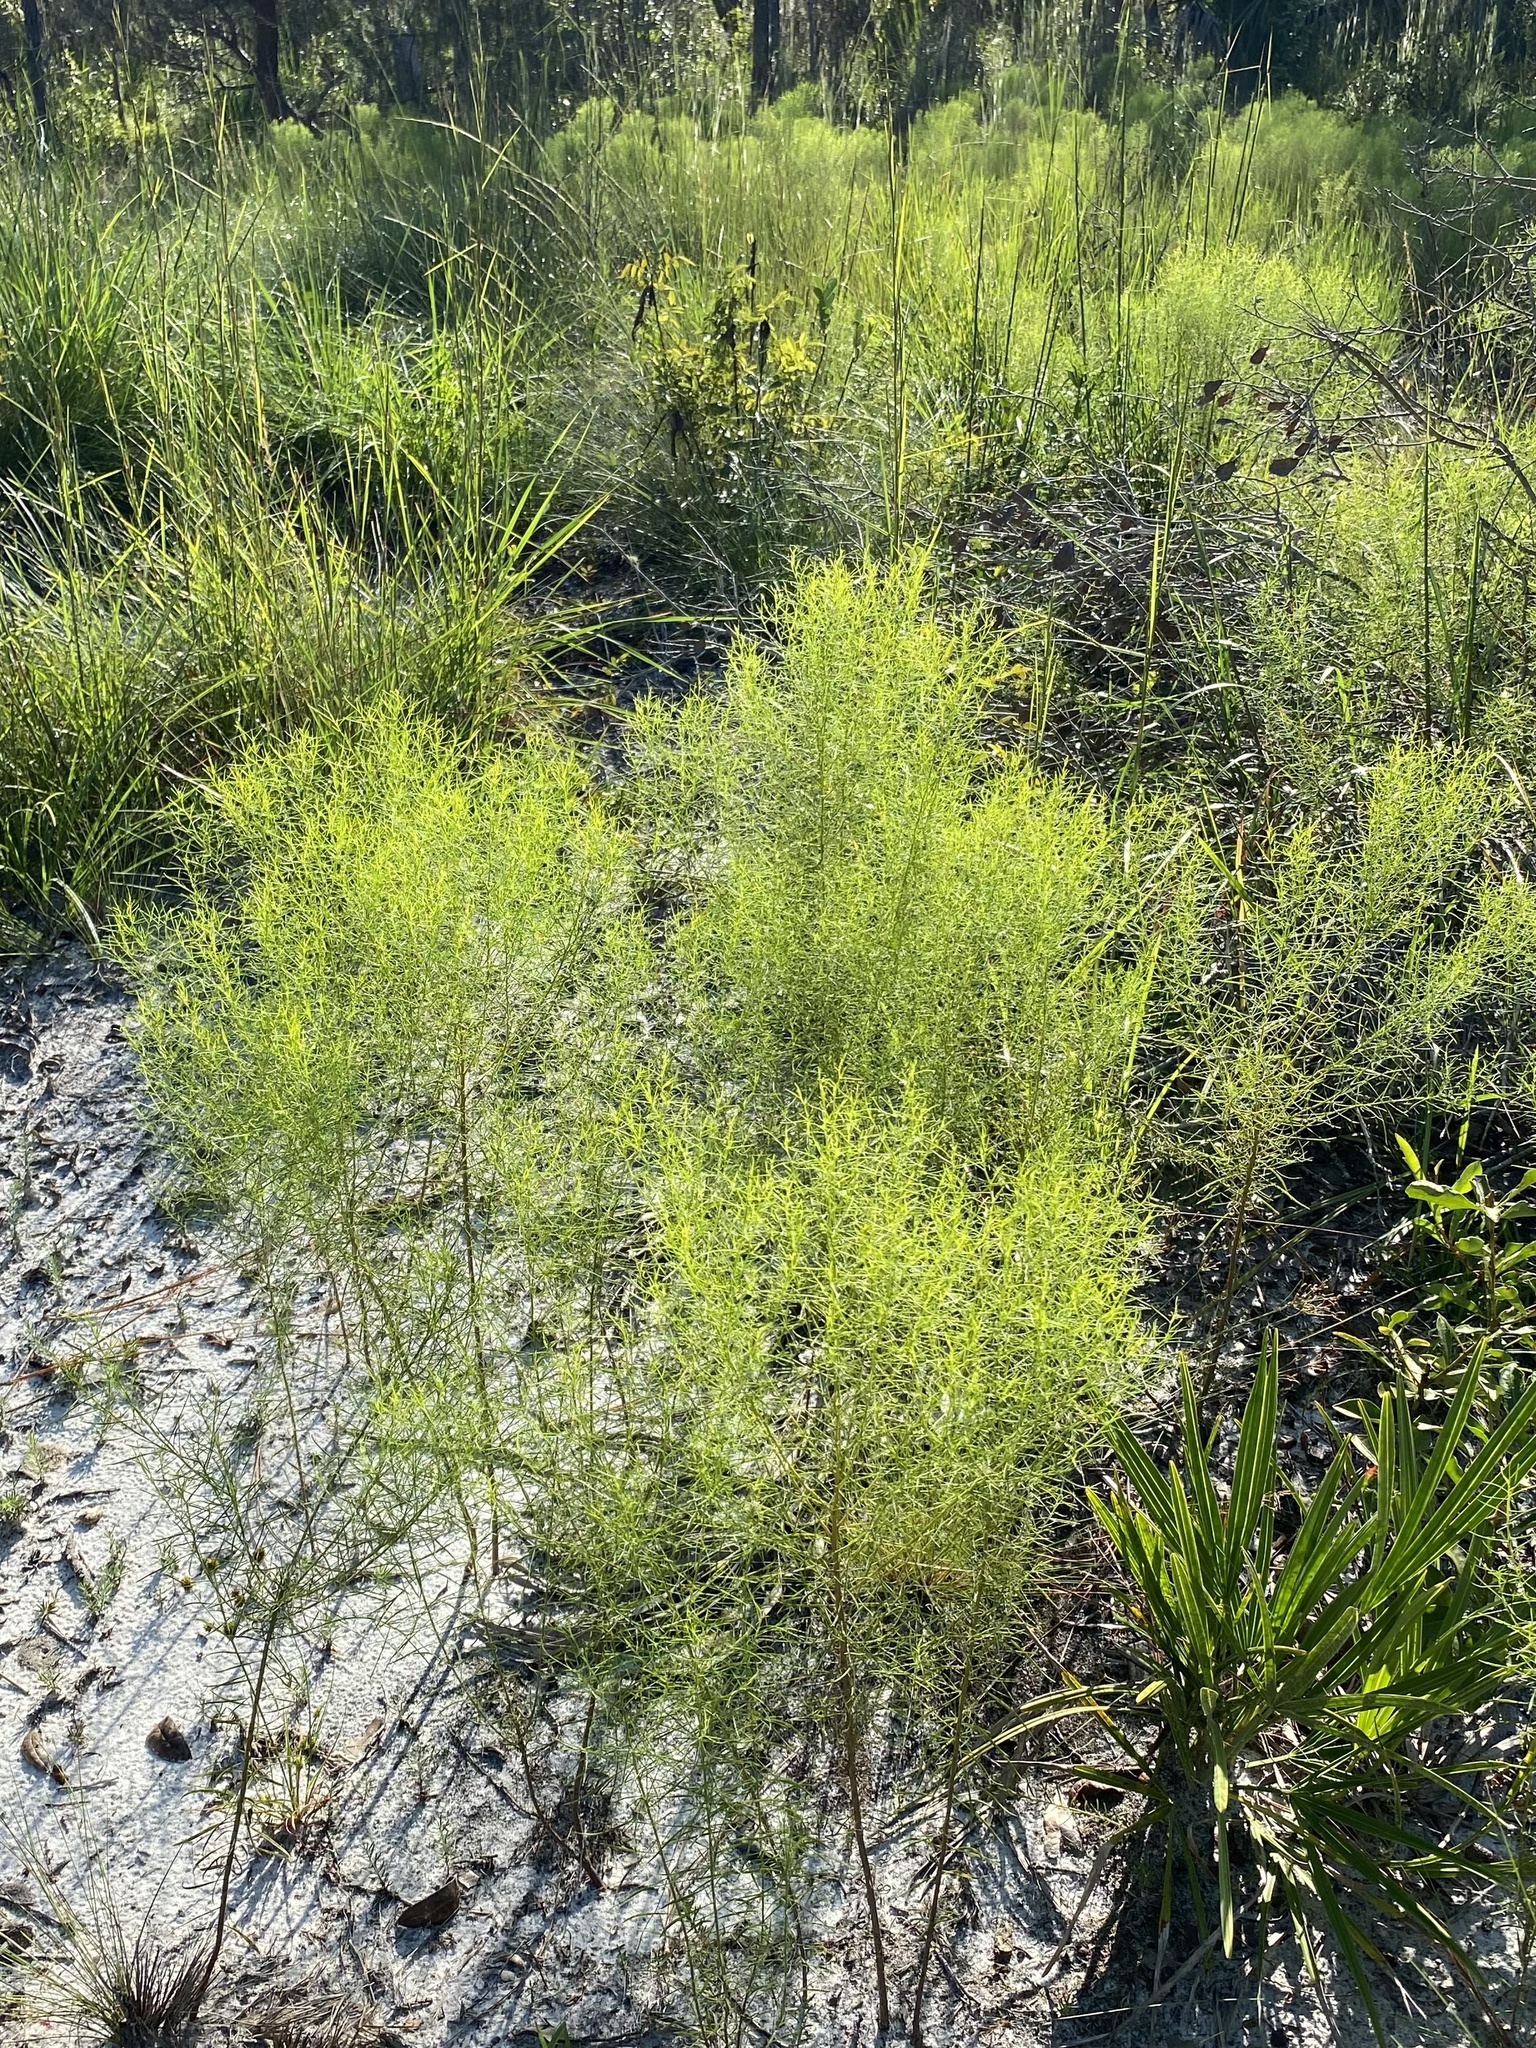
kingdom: Plantae
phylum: Tracheophyta
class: Magnoliopsida
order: Asterales
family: Asteraceae
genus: Euthamia
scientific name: Euthamia caroliniana
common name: Coastal plain goldentop
